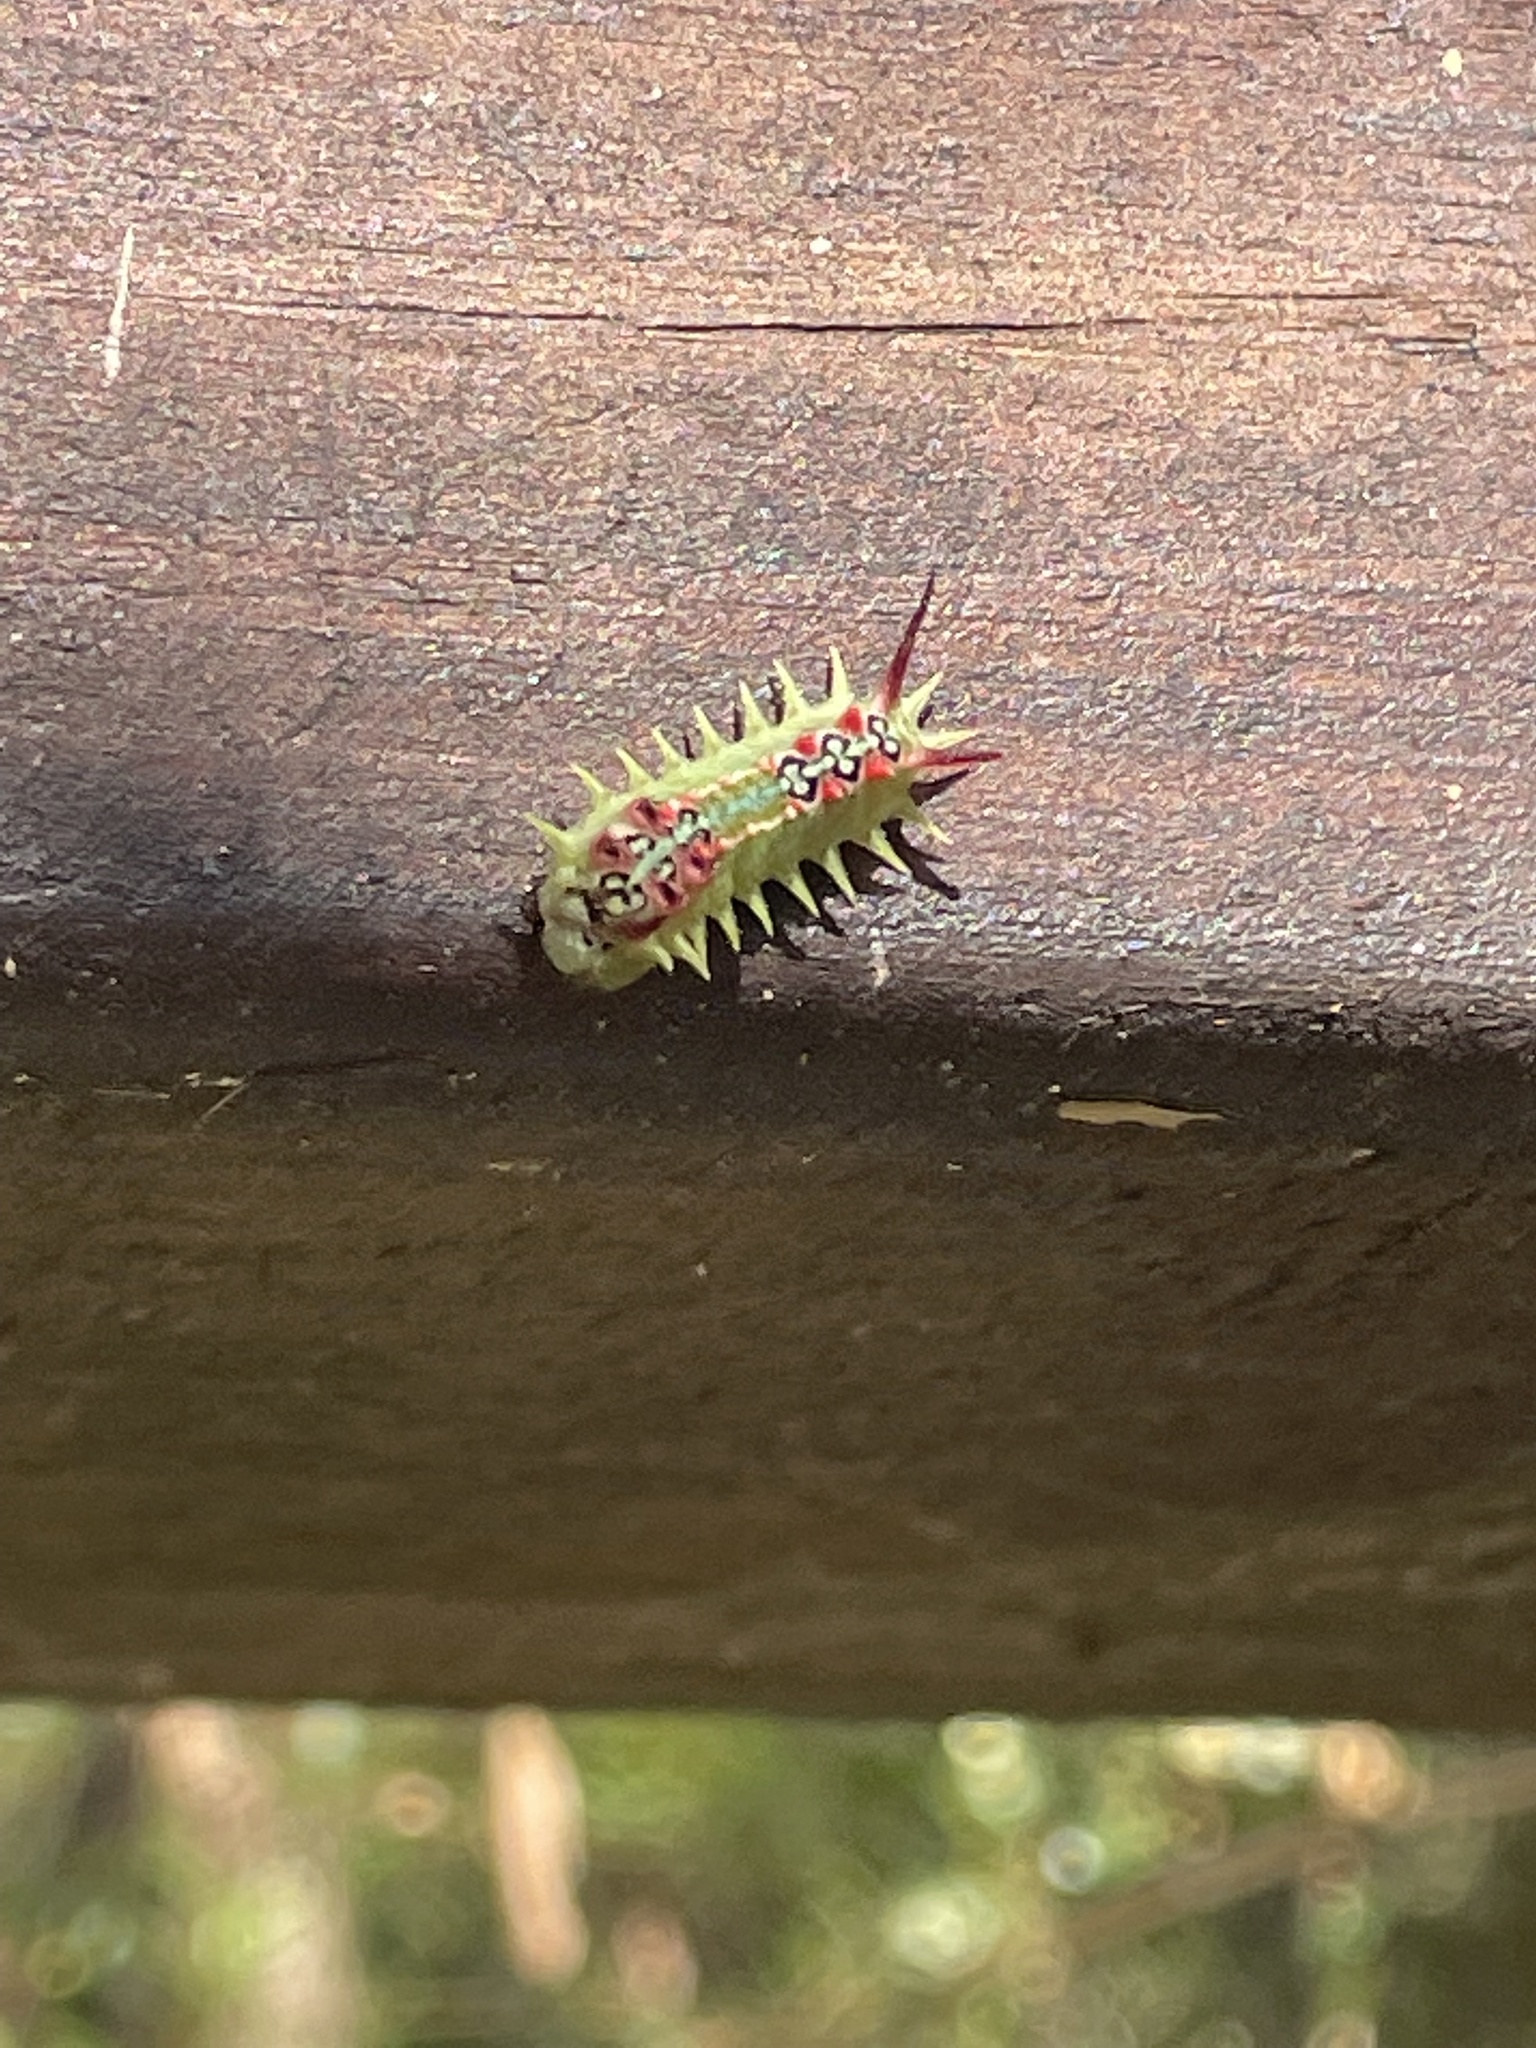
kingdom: Animalia
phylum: Arthropoda
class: Insecta
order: Lepidoptera
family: Limacodidae
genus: Doratifera
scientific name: Doratifera quadriguttata
